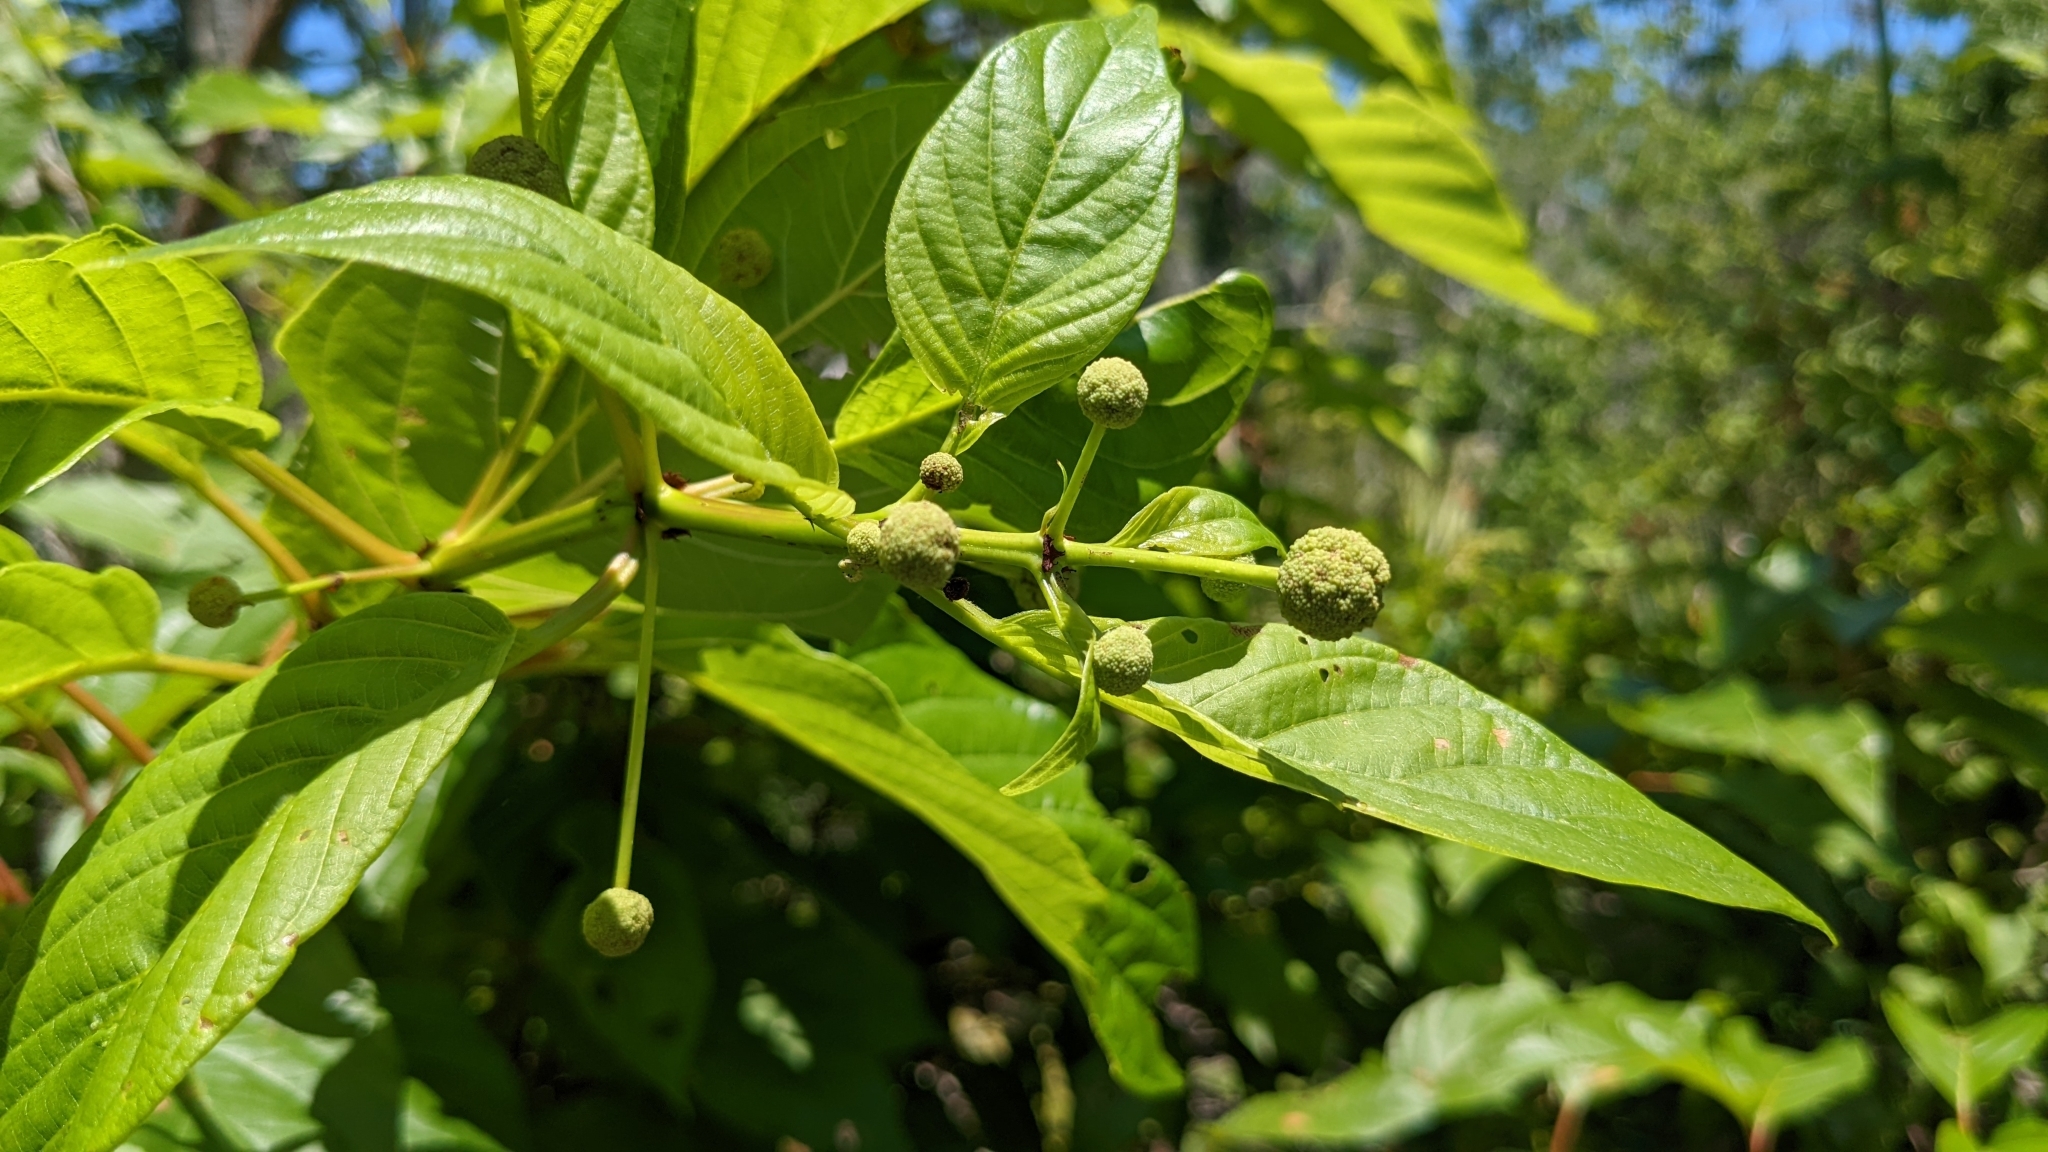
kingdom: Plantae
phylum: Tracheophyta
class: Magnoliopsida
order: Gentianales
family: Rubiaceae
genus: Cephalanthus
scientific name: Cephalanthus occidentalis
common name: Button-willow
